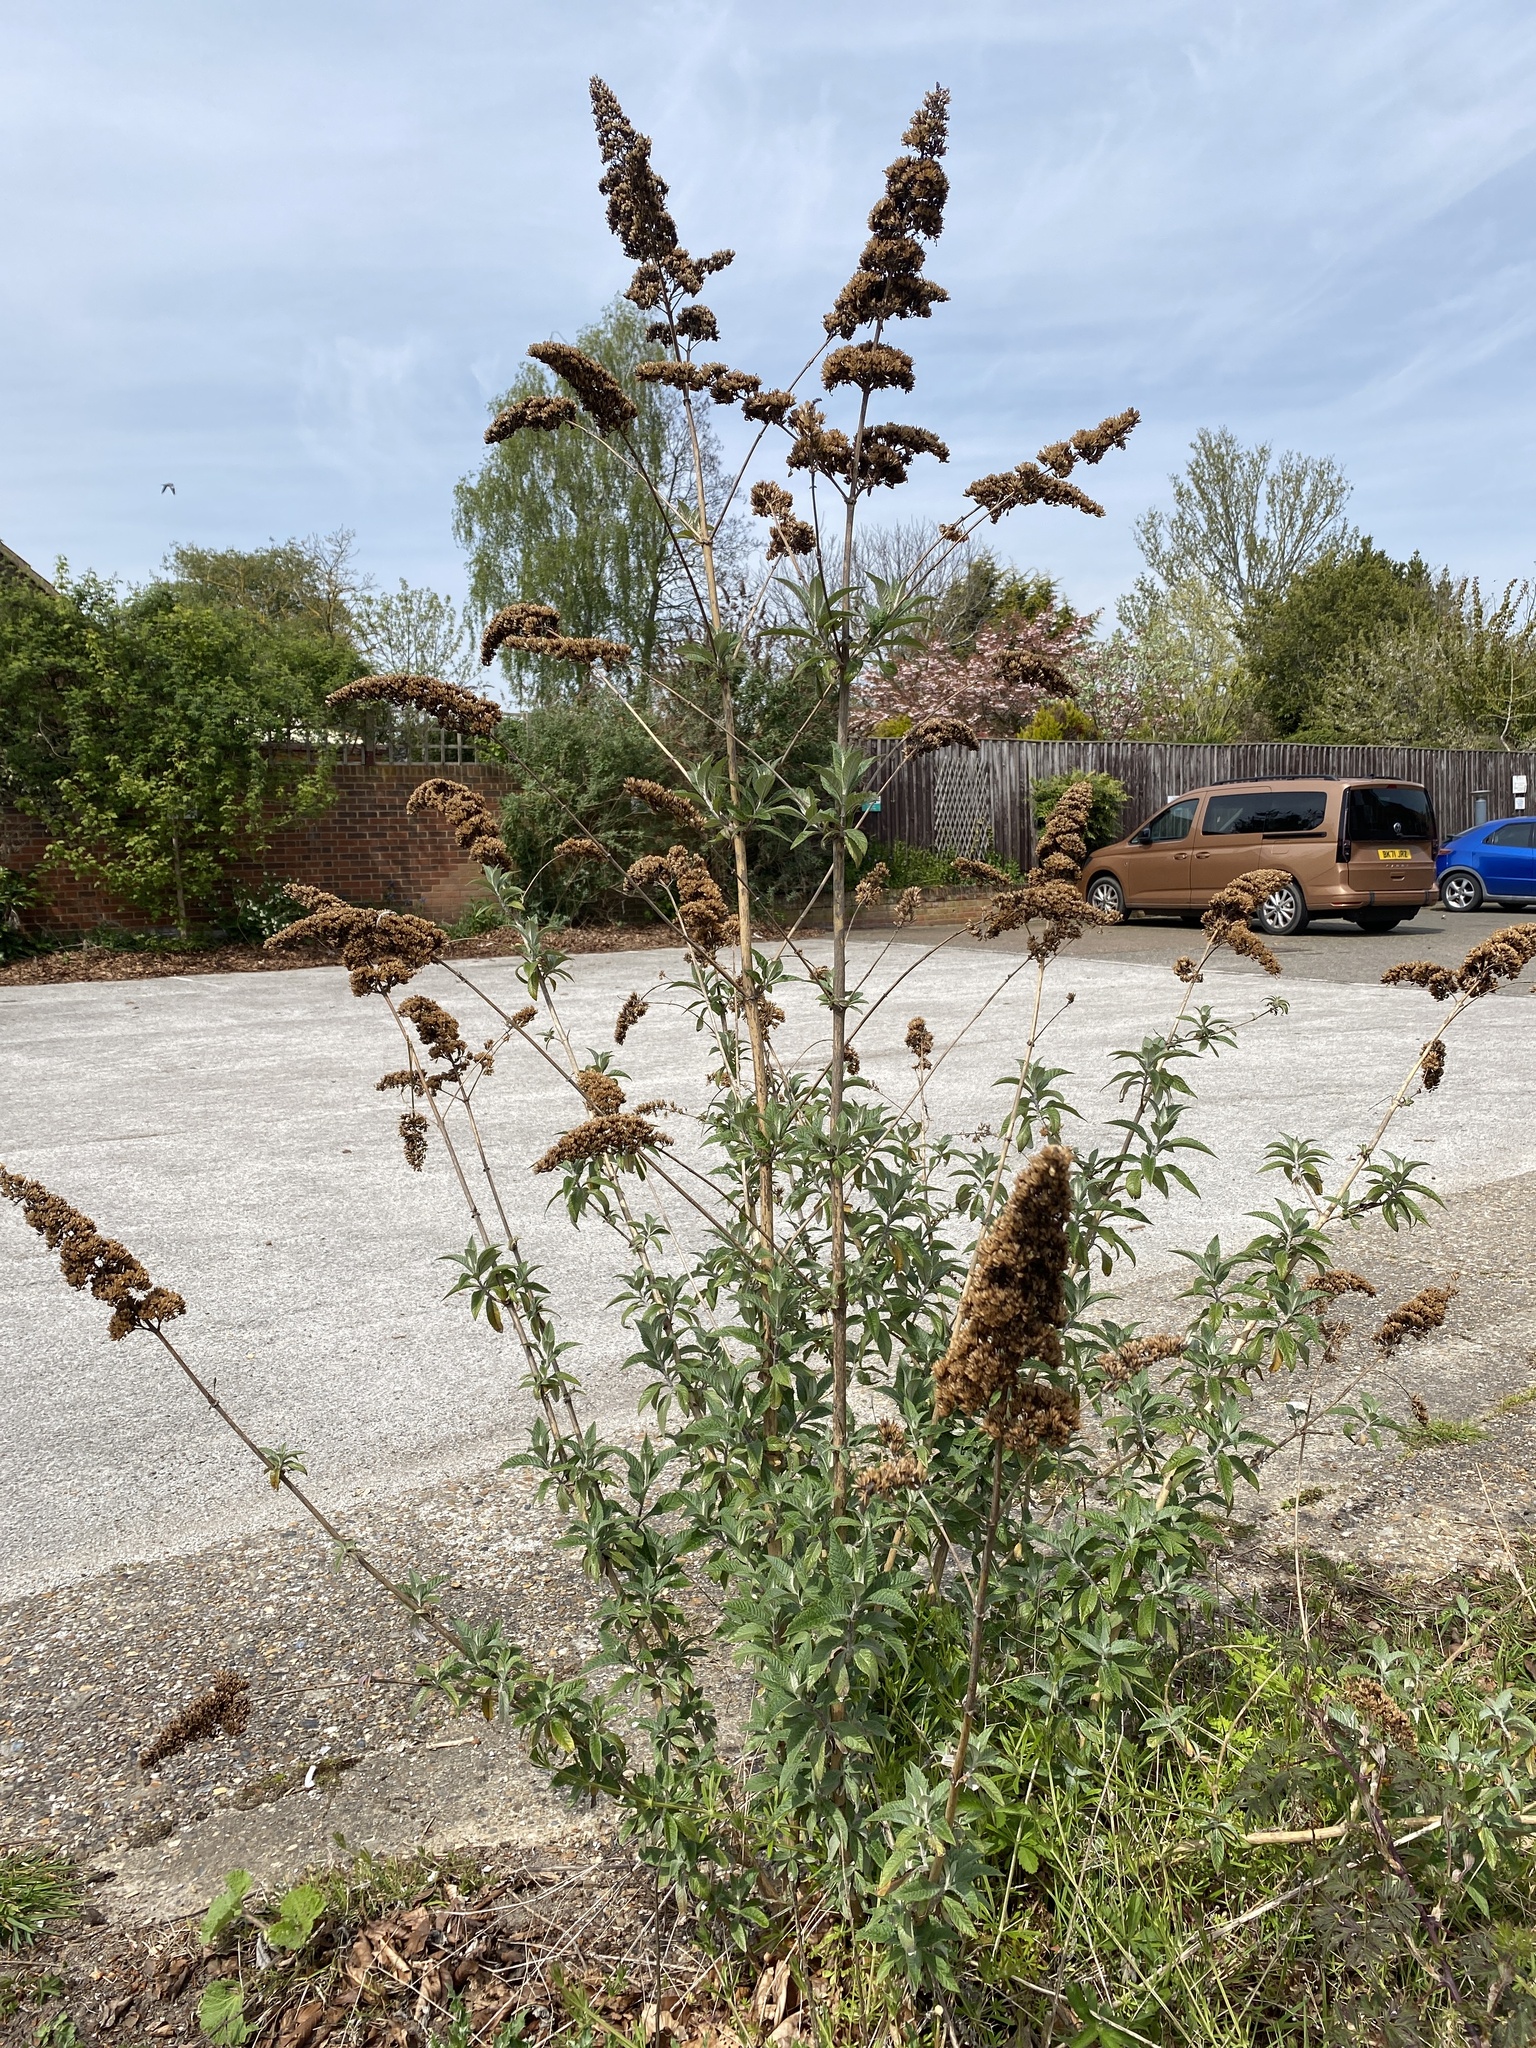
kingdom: Plantae
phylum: Tracheophyta
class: Magnoliopsida
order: Lamiales
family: Scrophulariaceae
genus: Buddleja
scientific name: Buddleja davidii
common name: Butterfly-bush
